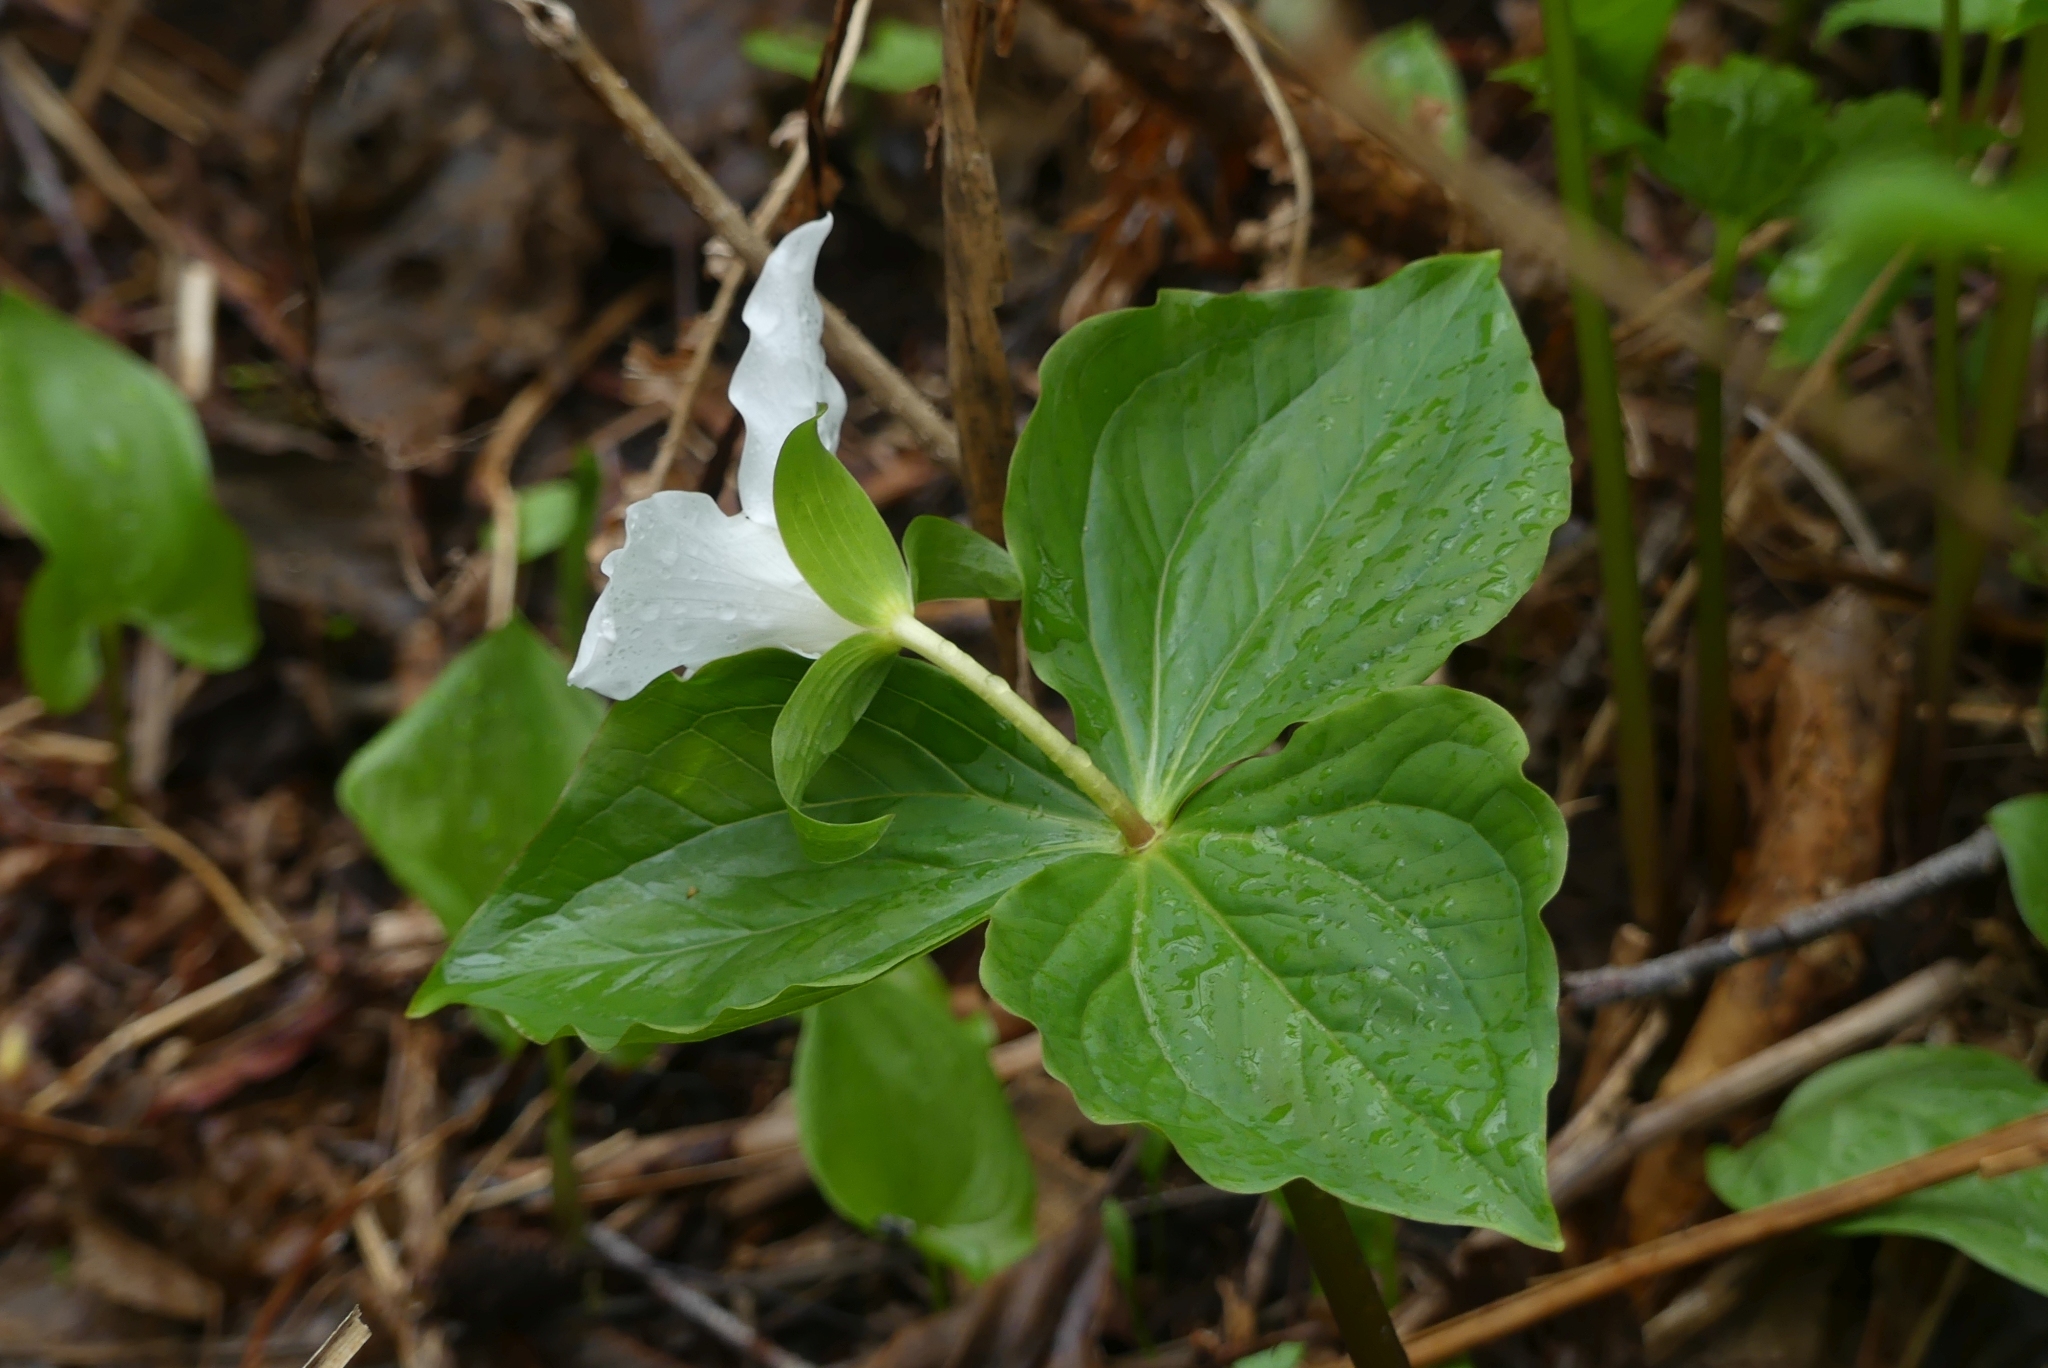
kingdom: Plantae
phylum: Tracheophyta
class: Liliopsida
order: Liliales
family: Melanthiaceae
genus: Trillium
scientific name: Trillium ovatum
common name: Pacific trillium
